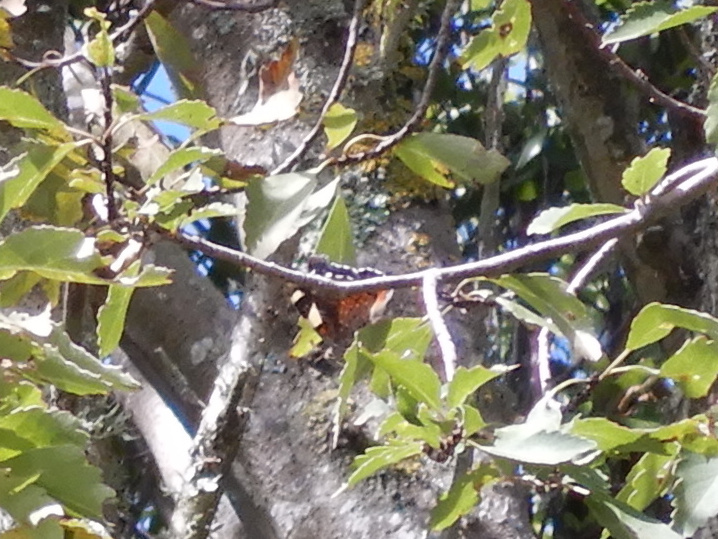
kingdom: Animalia
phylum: Arthropoda
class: Insecta
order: Lepidoptera
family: Nymphalidae
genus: Vanessa
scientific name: Vanessa itea
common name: Yellow admiral
